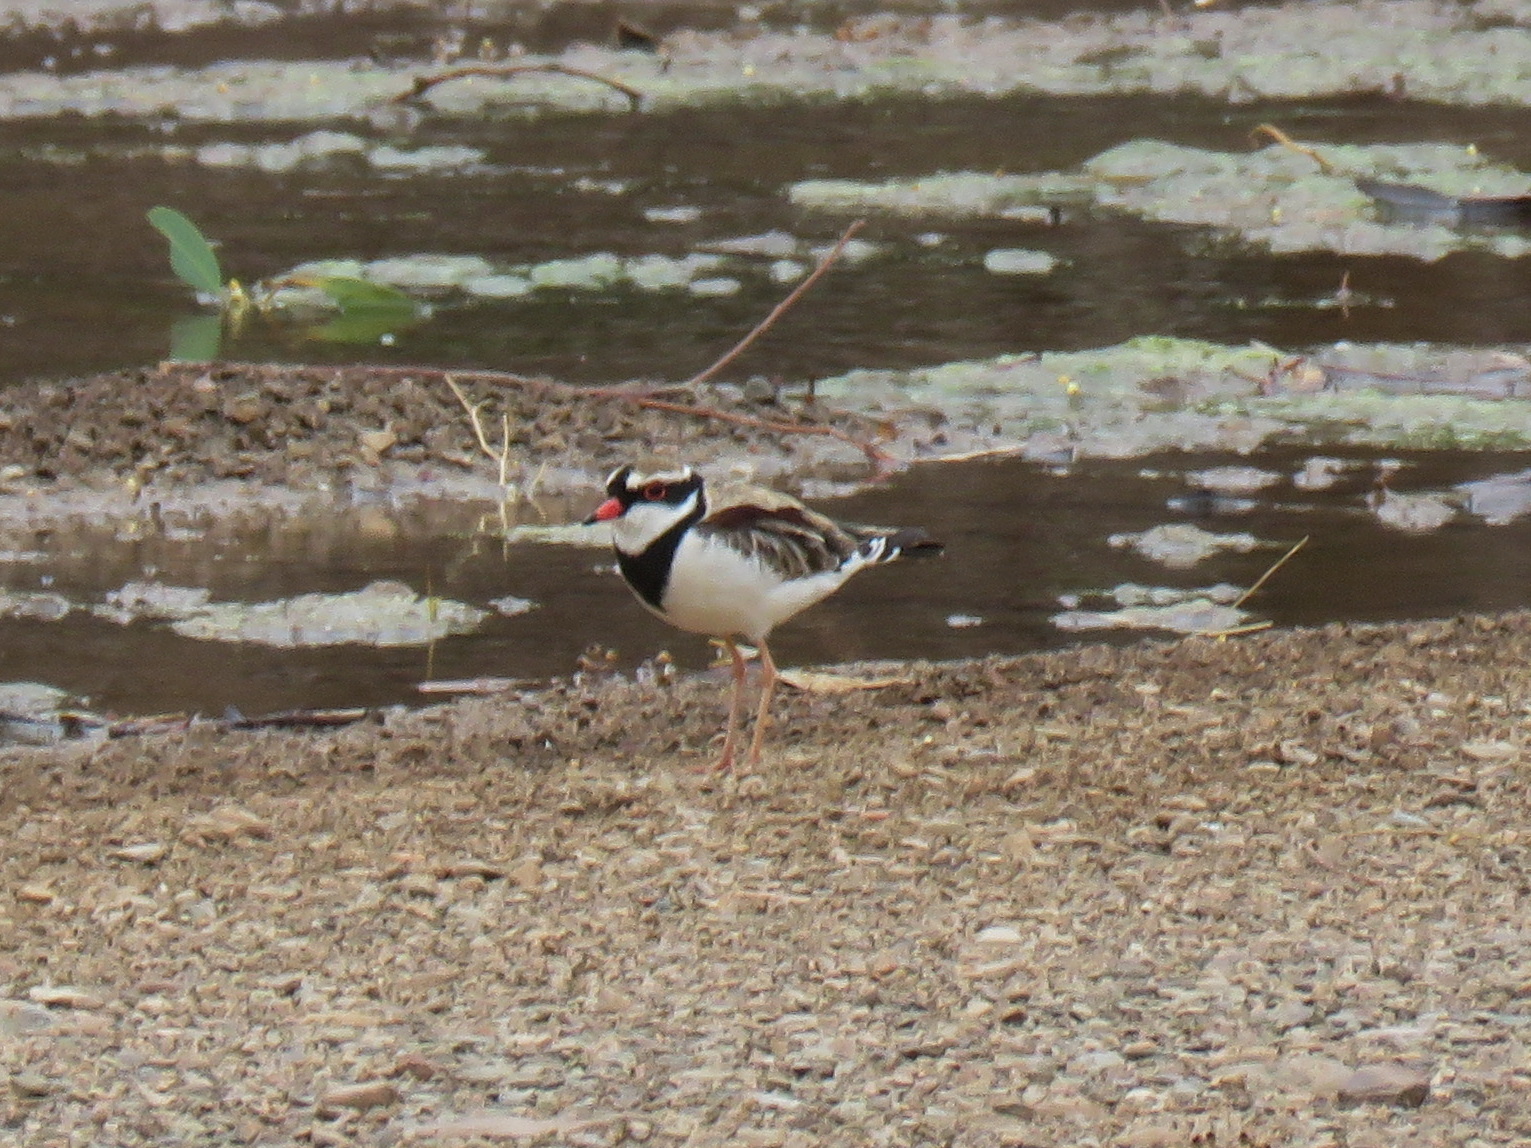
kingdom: Animalia
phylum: Chordata
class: Aves
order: Charadriiformes
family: Charadriidae
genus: Elseyornis
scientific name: Elseyornis melanops
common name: Black-fronted dotterel
